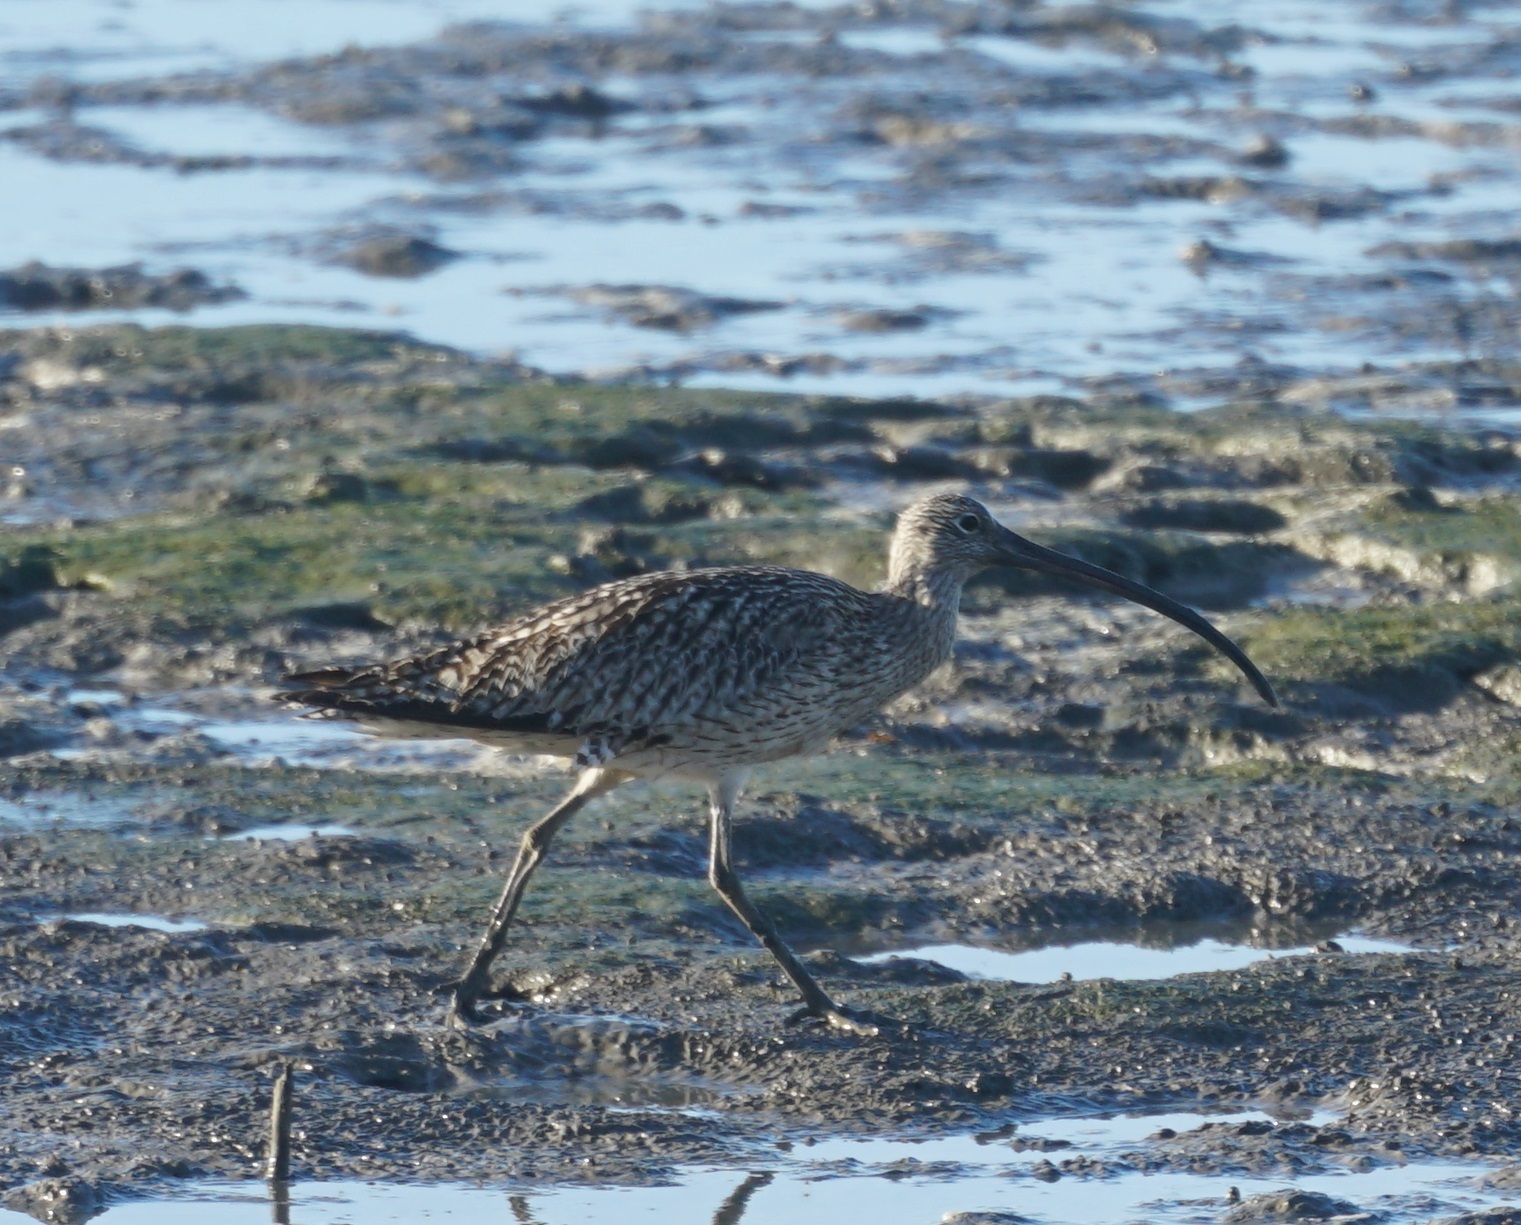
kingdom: Animalia
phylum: Chordata
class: Aves
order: Charadriiformes
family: Scolopacidae
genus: Numenius
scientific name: Numenius madagascariensis
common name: Far eastern curlew
